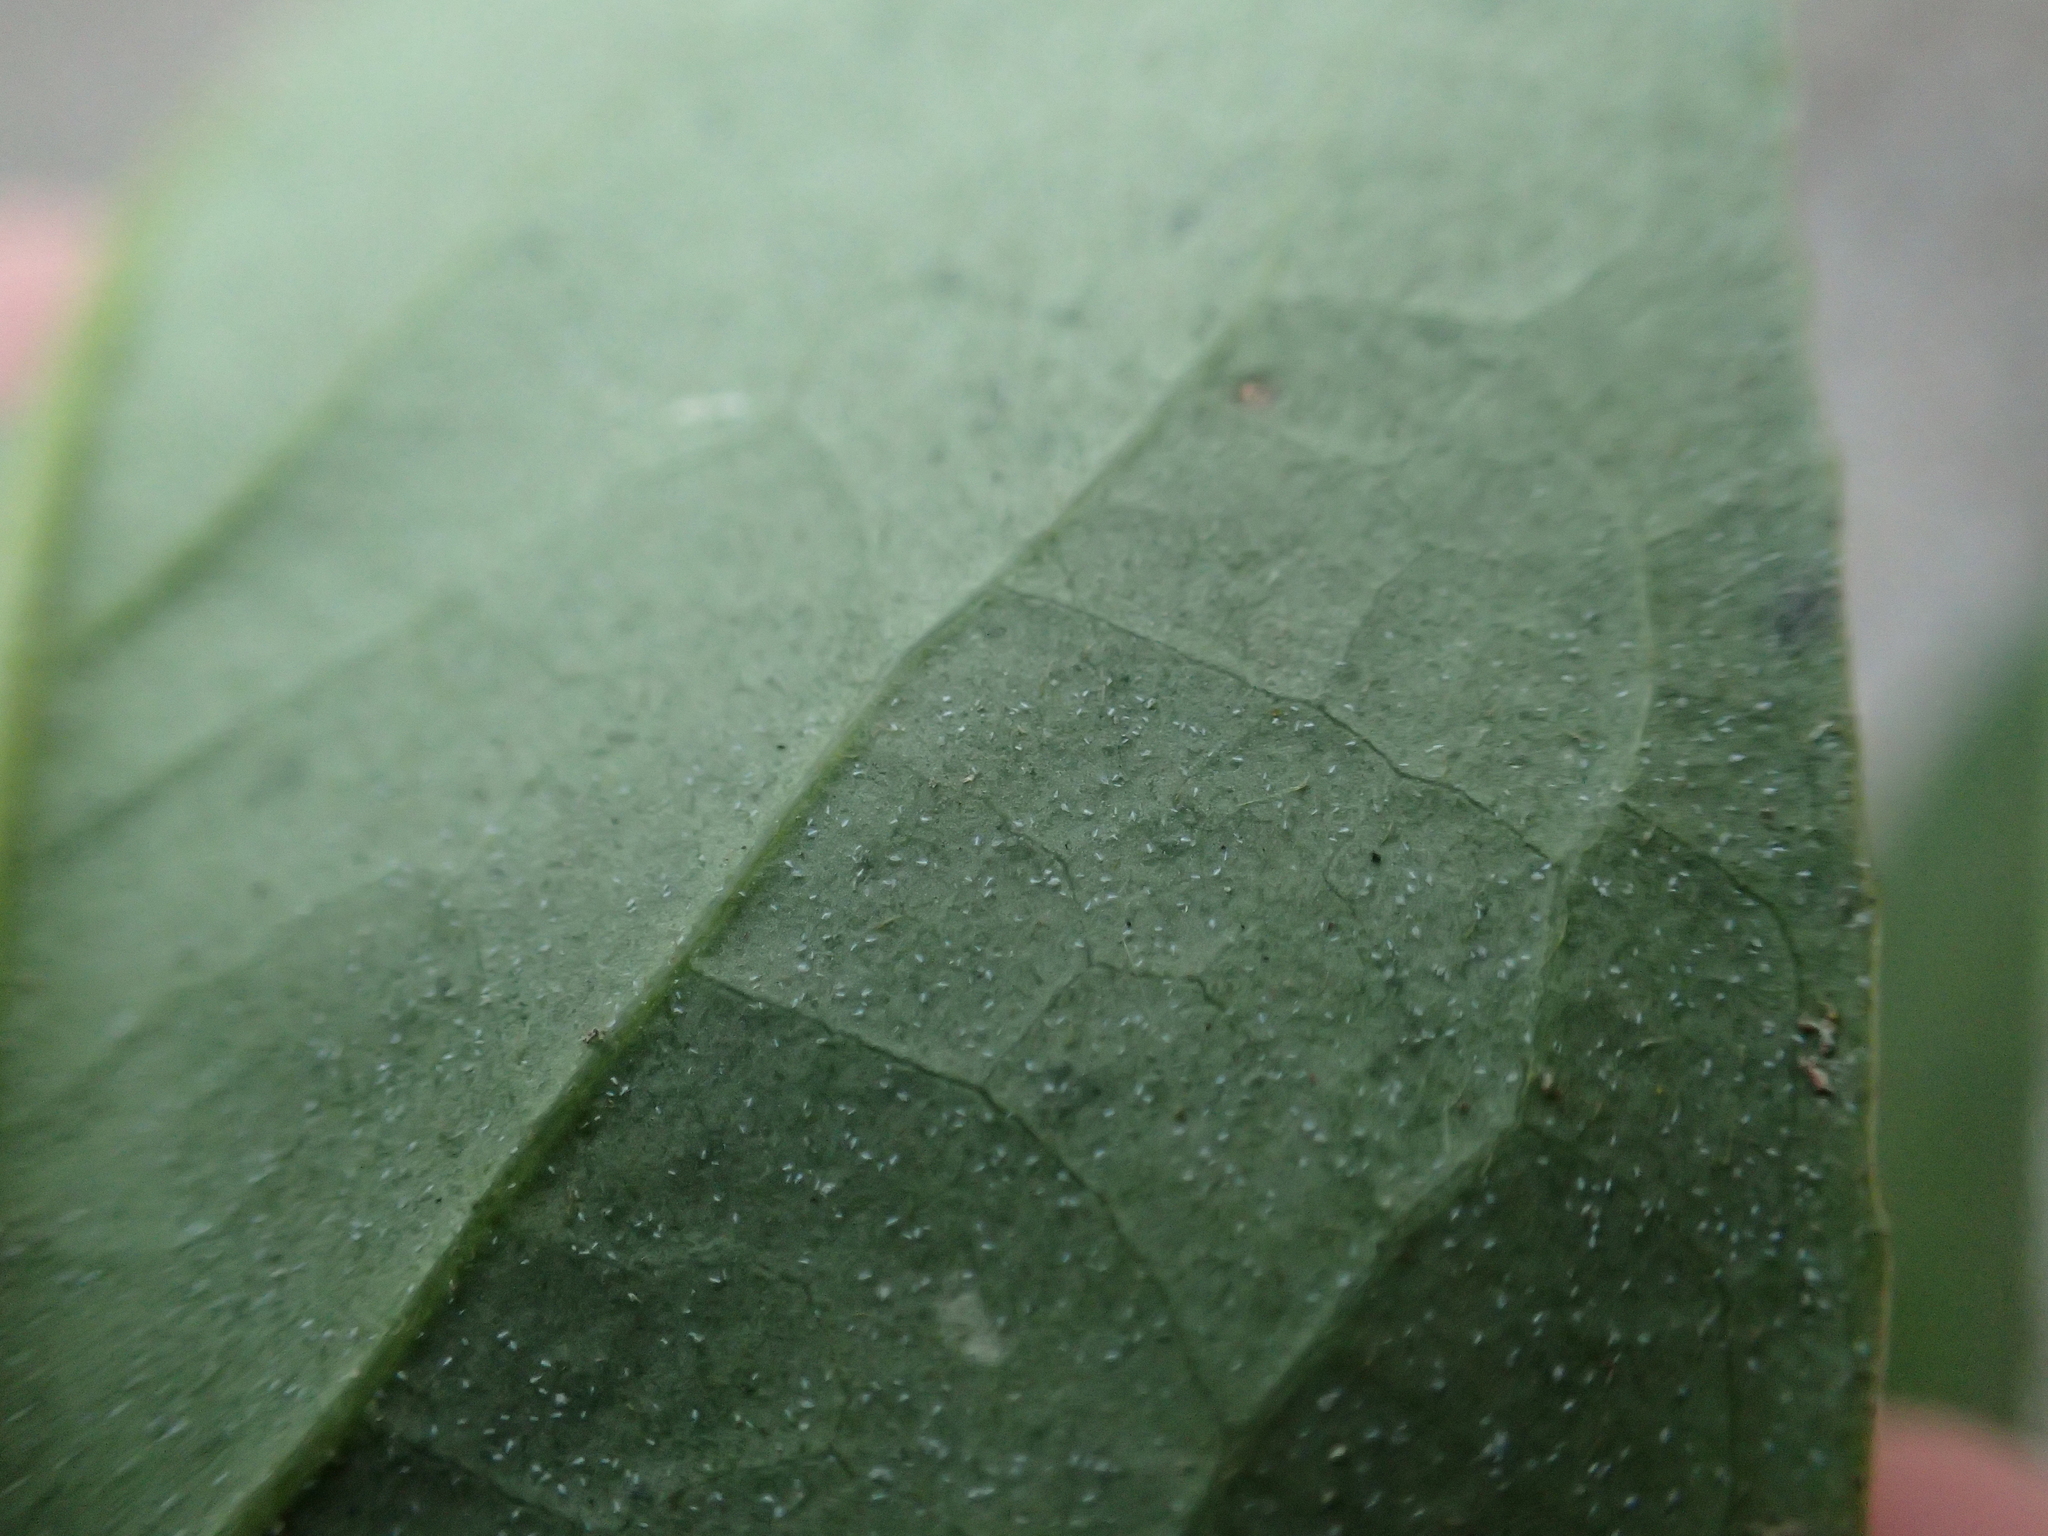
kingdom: Plantae
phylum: Tracheophyta
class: Magnoliopsida
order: Ericales
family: Symplocaceae
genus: Symplocos
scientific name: Symplocos acuminata
